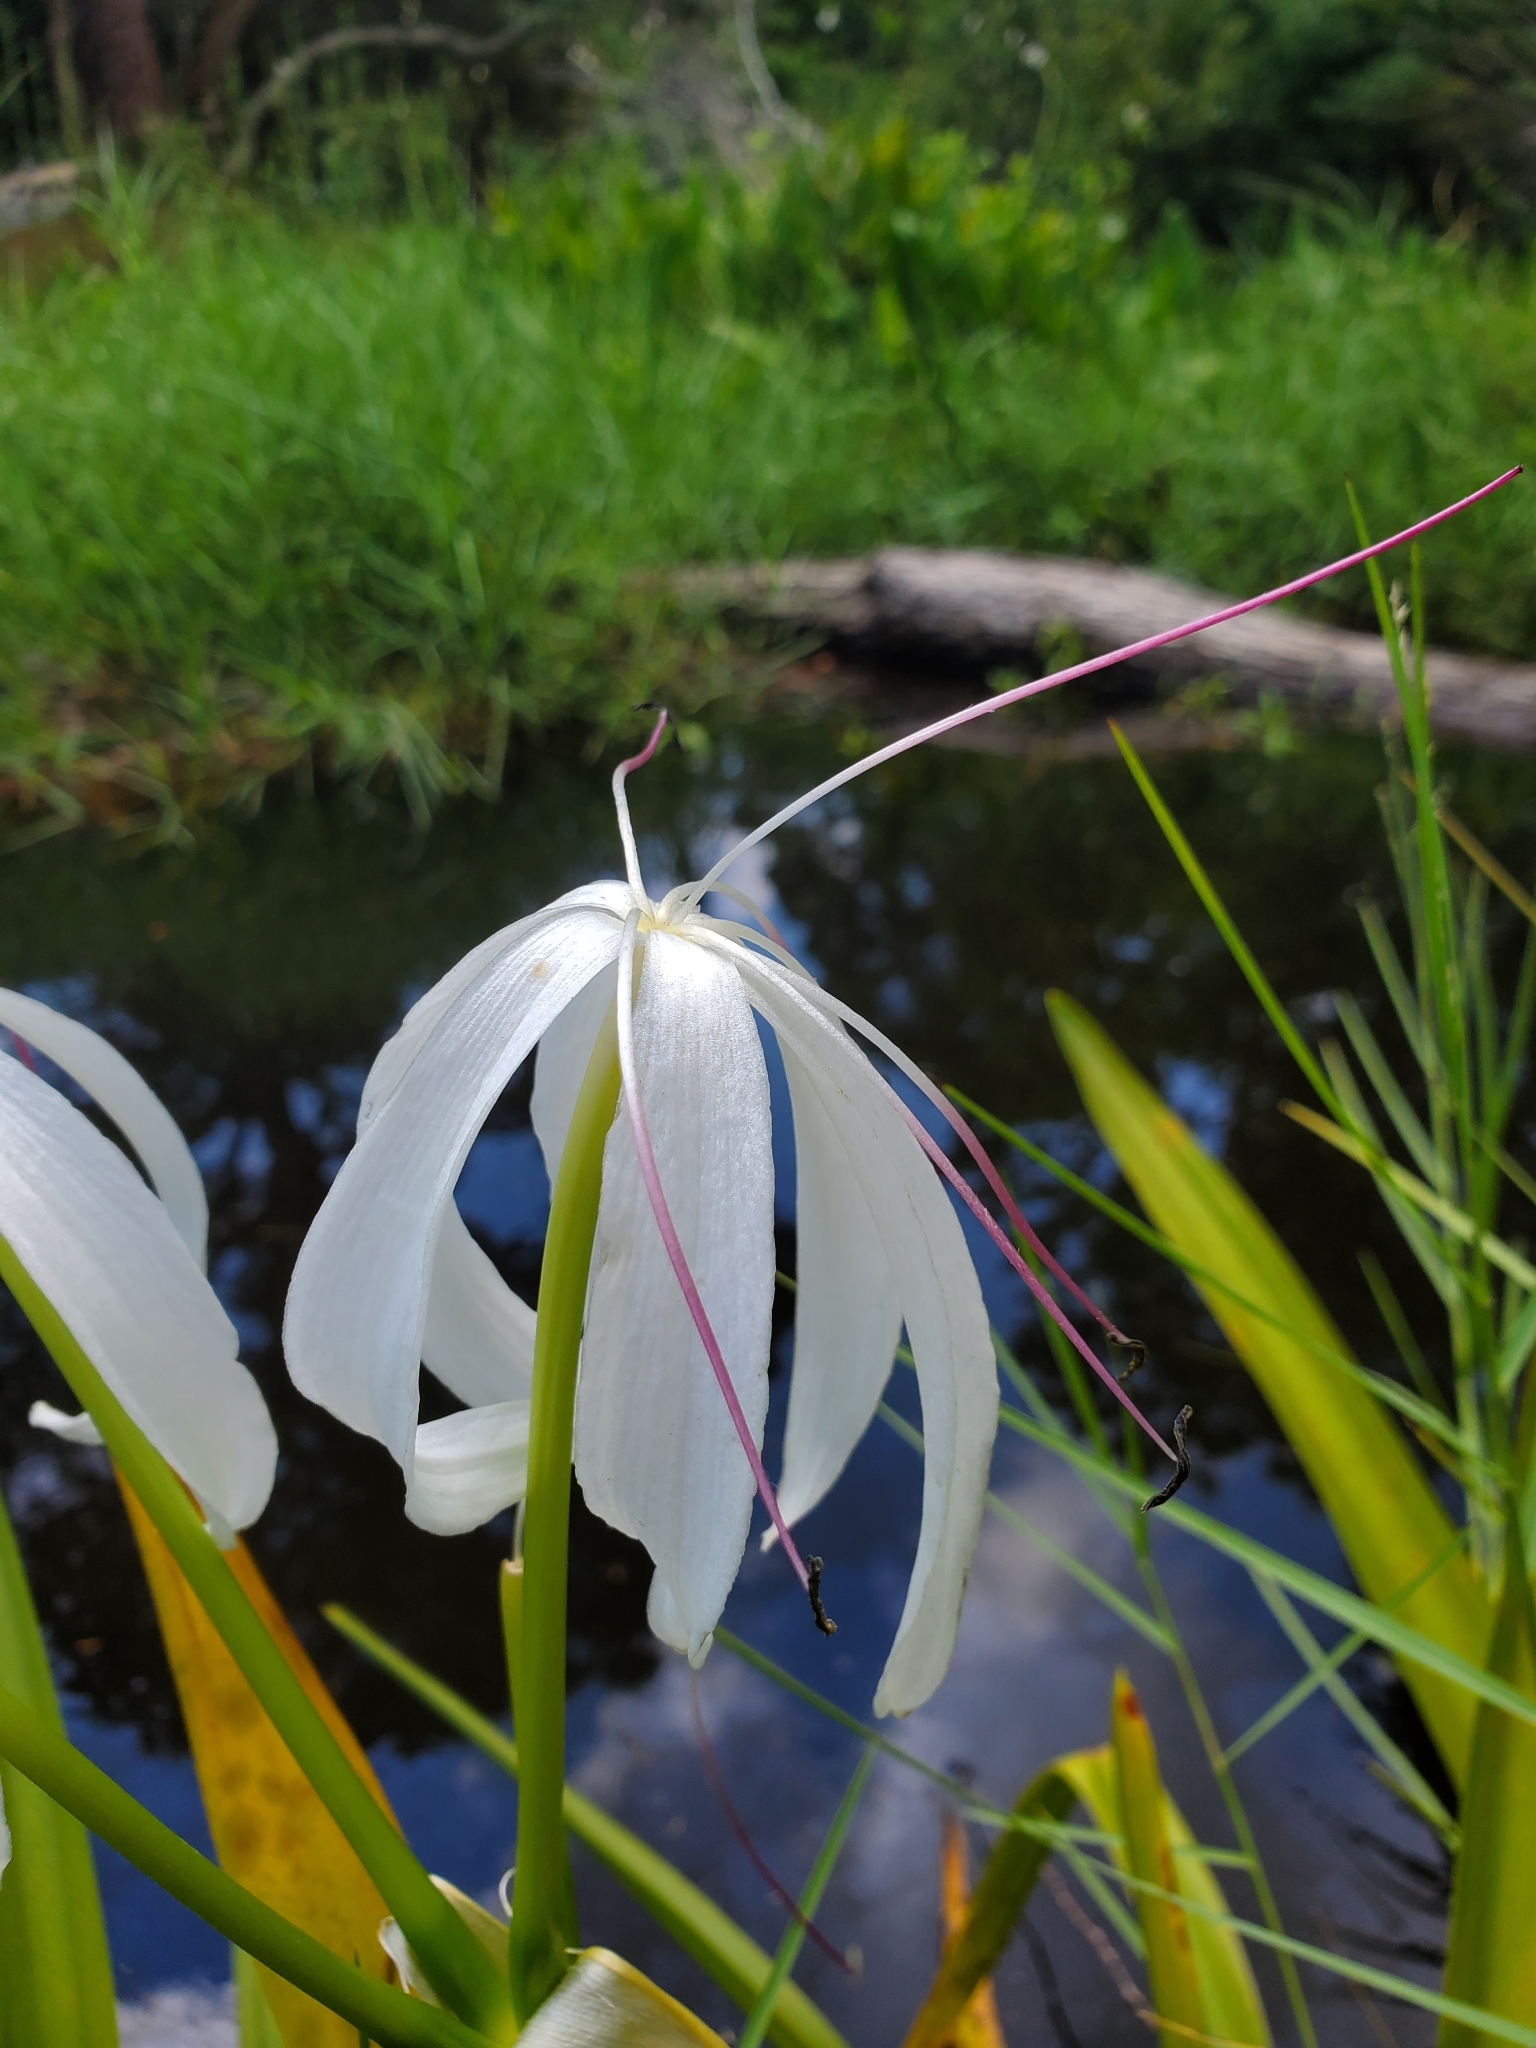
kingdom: Plantae
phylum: Tracheophyta
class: Liliopsida
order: Asparagales
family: Amaryllidaceae
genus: Crinum
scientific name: Crinum americanum
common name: Florida swamp-lily
